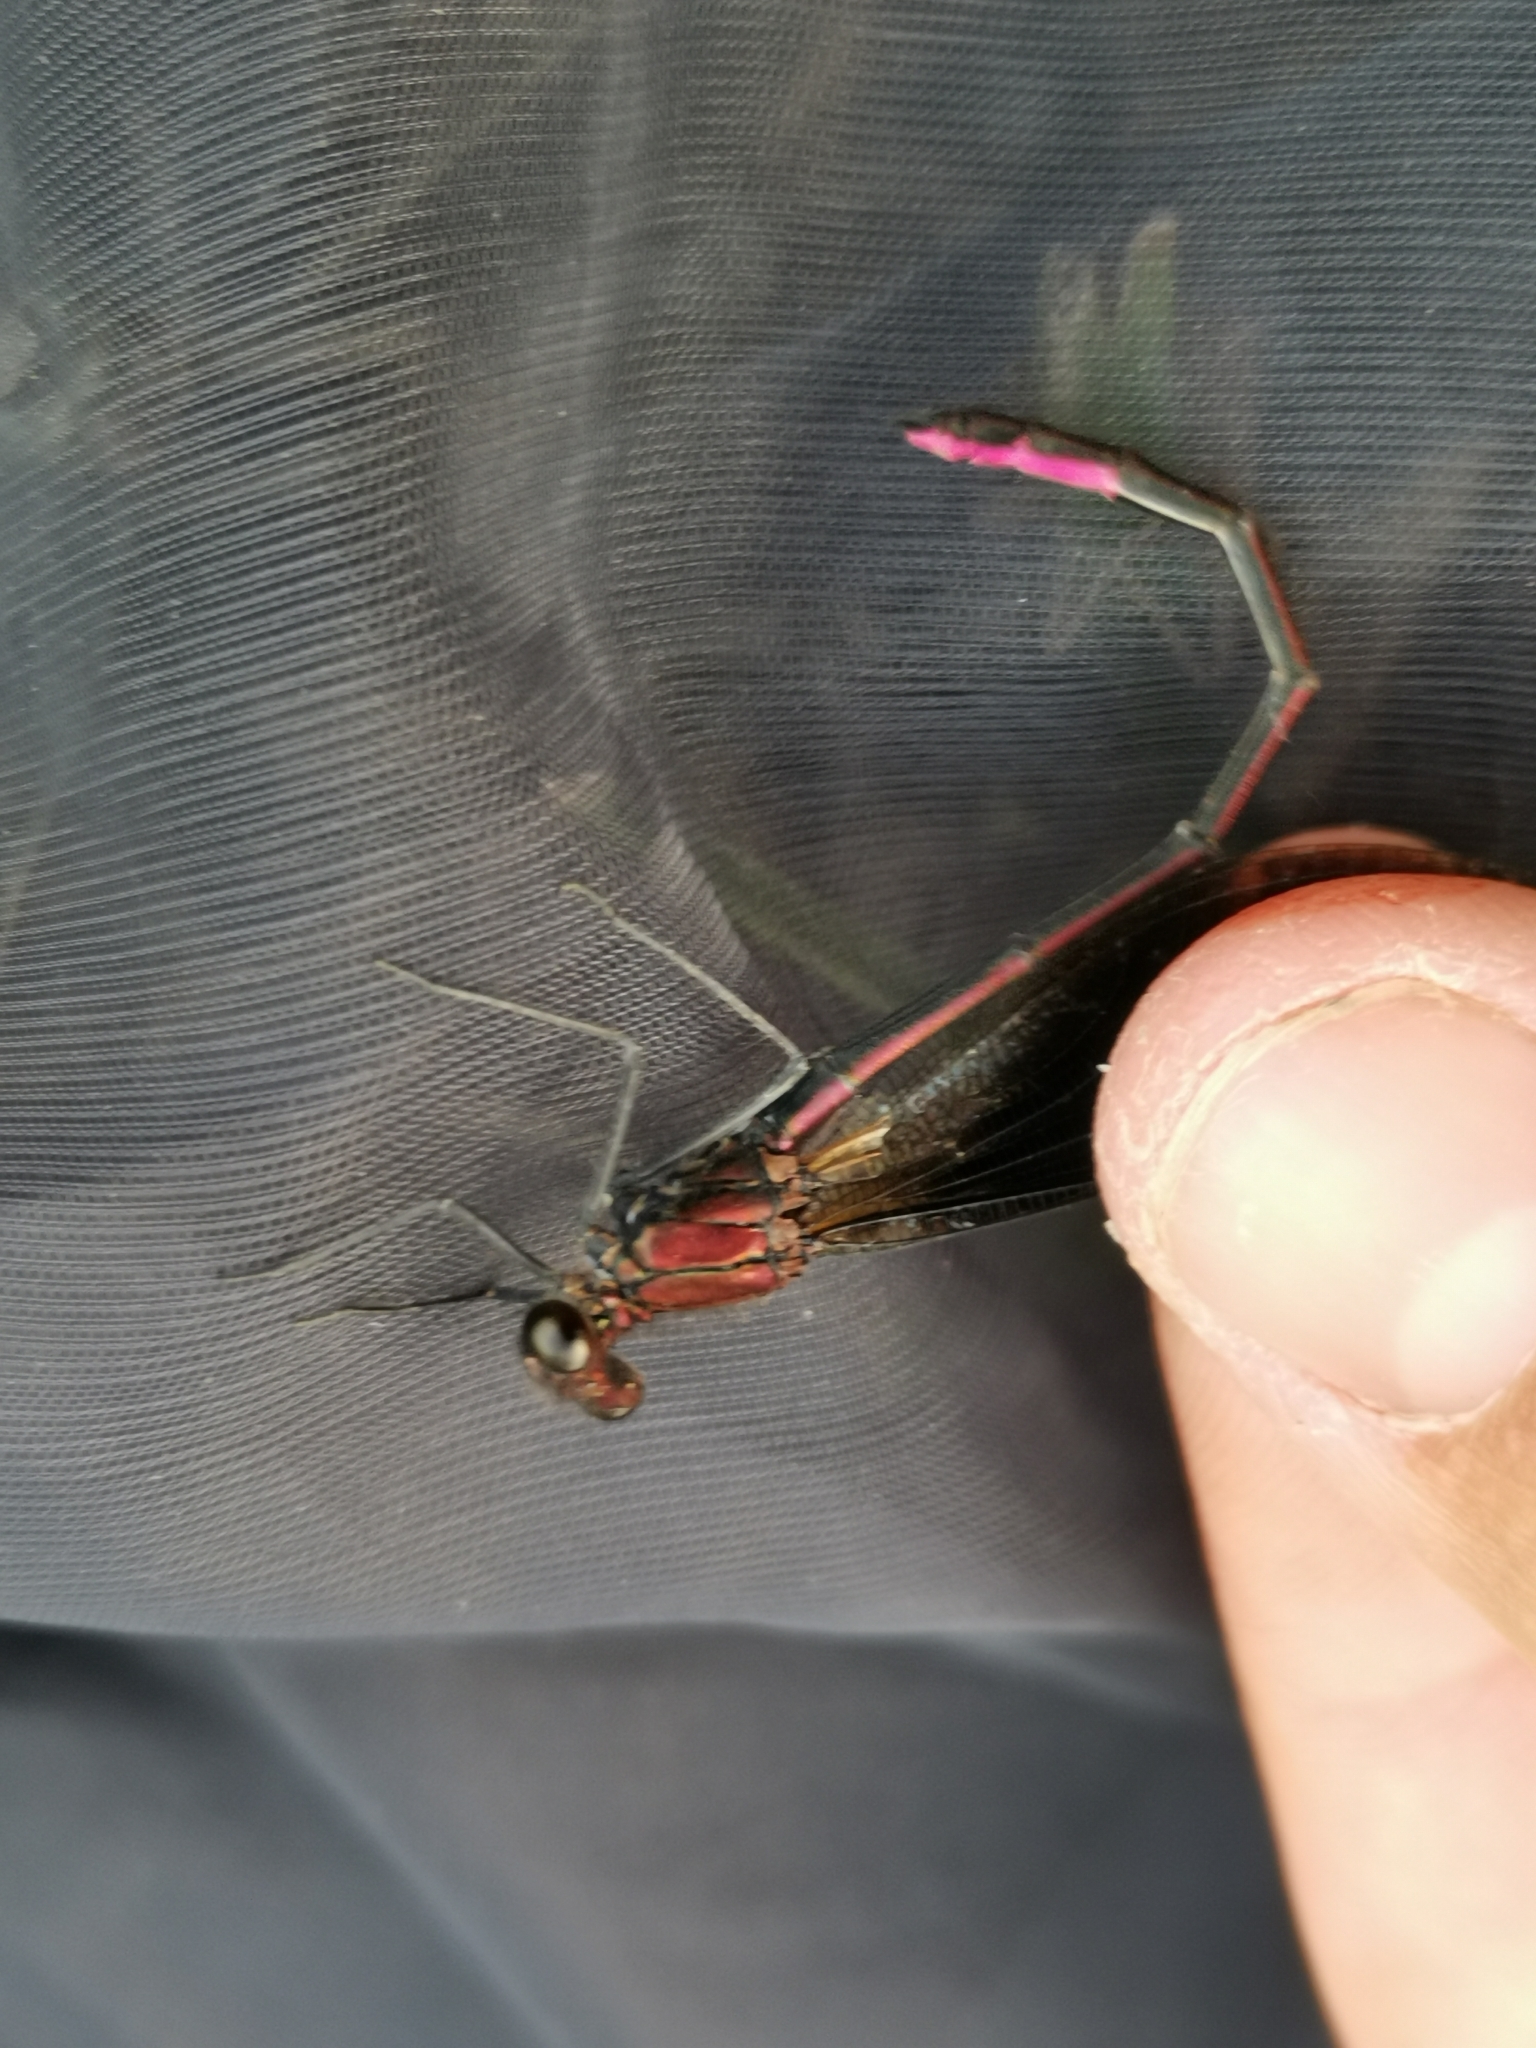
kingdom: Animalia
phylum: Arthropoda
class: Insecta
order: Odonata
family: Calopterygidae
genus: Calopteryx
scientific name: Calopteryx haemorrhoidalis
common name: Copper demoiselle
